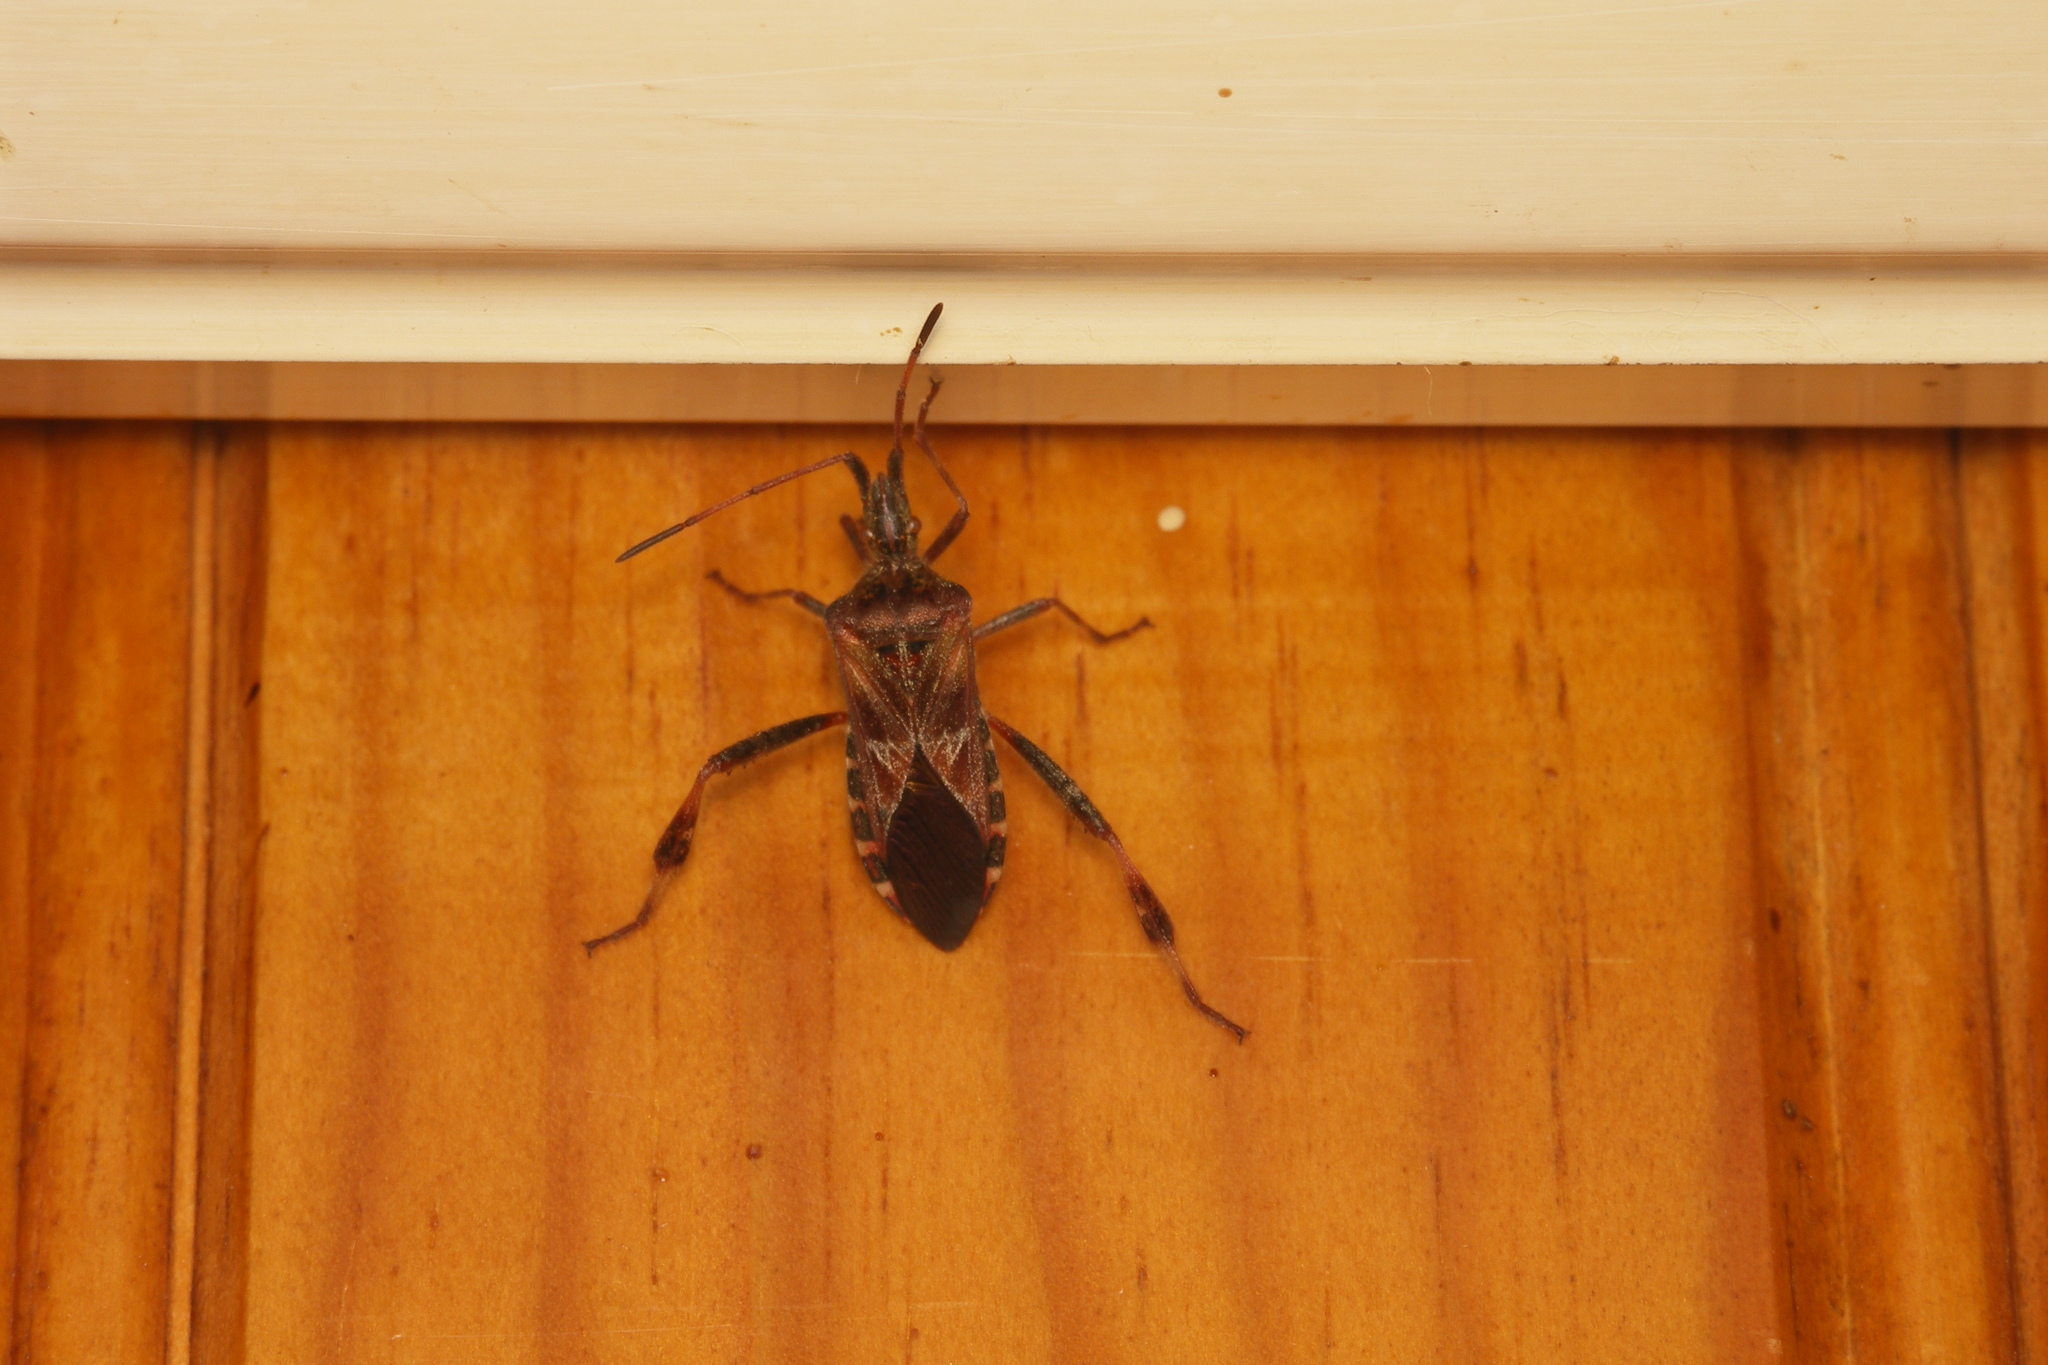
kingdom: Animalia
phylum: Arthropoda
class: Insecta
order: Hemiptera
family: Coreidae
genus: Leptoglossus
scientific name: Leptoglossus occidentalis
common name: Western conifer-seed bug
